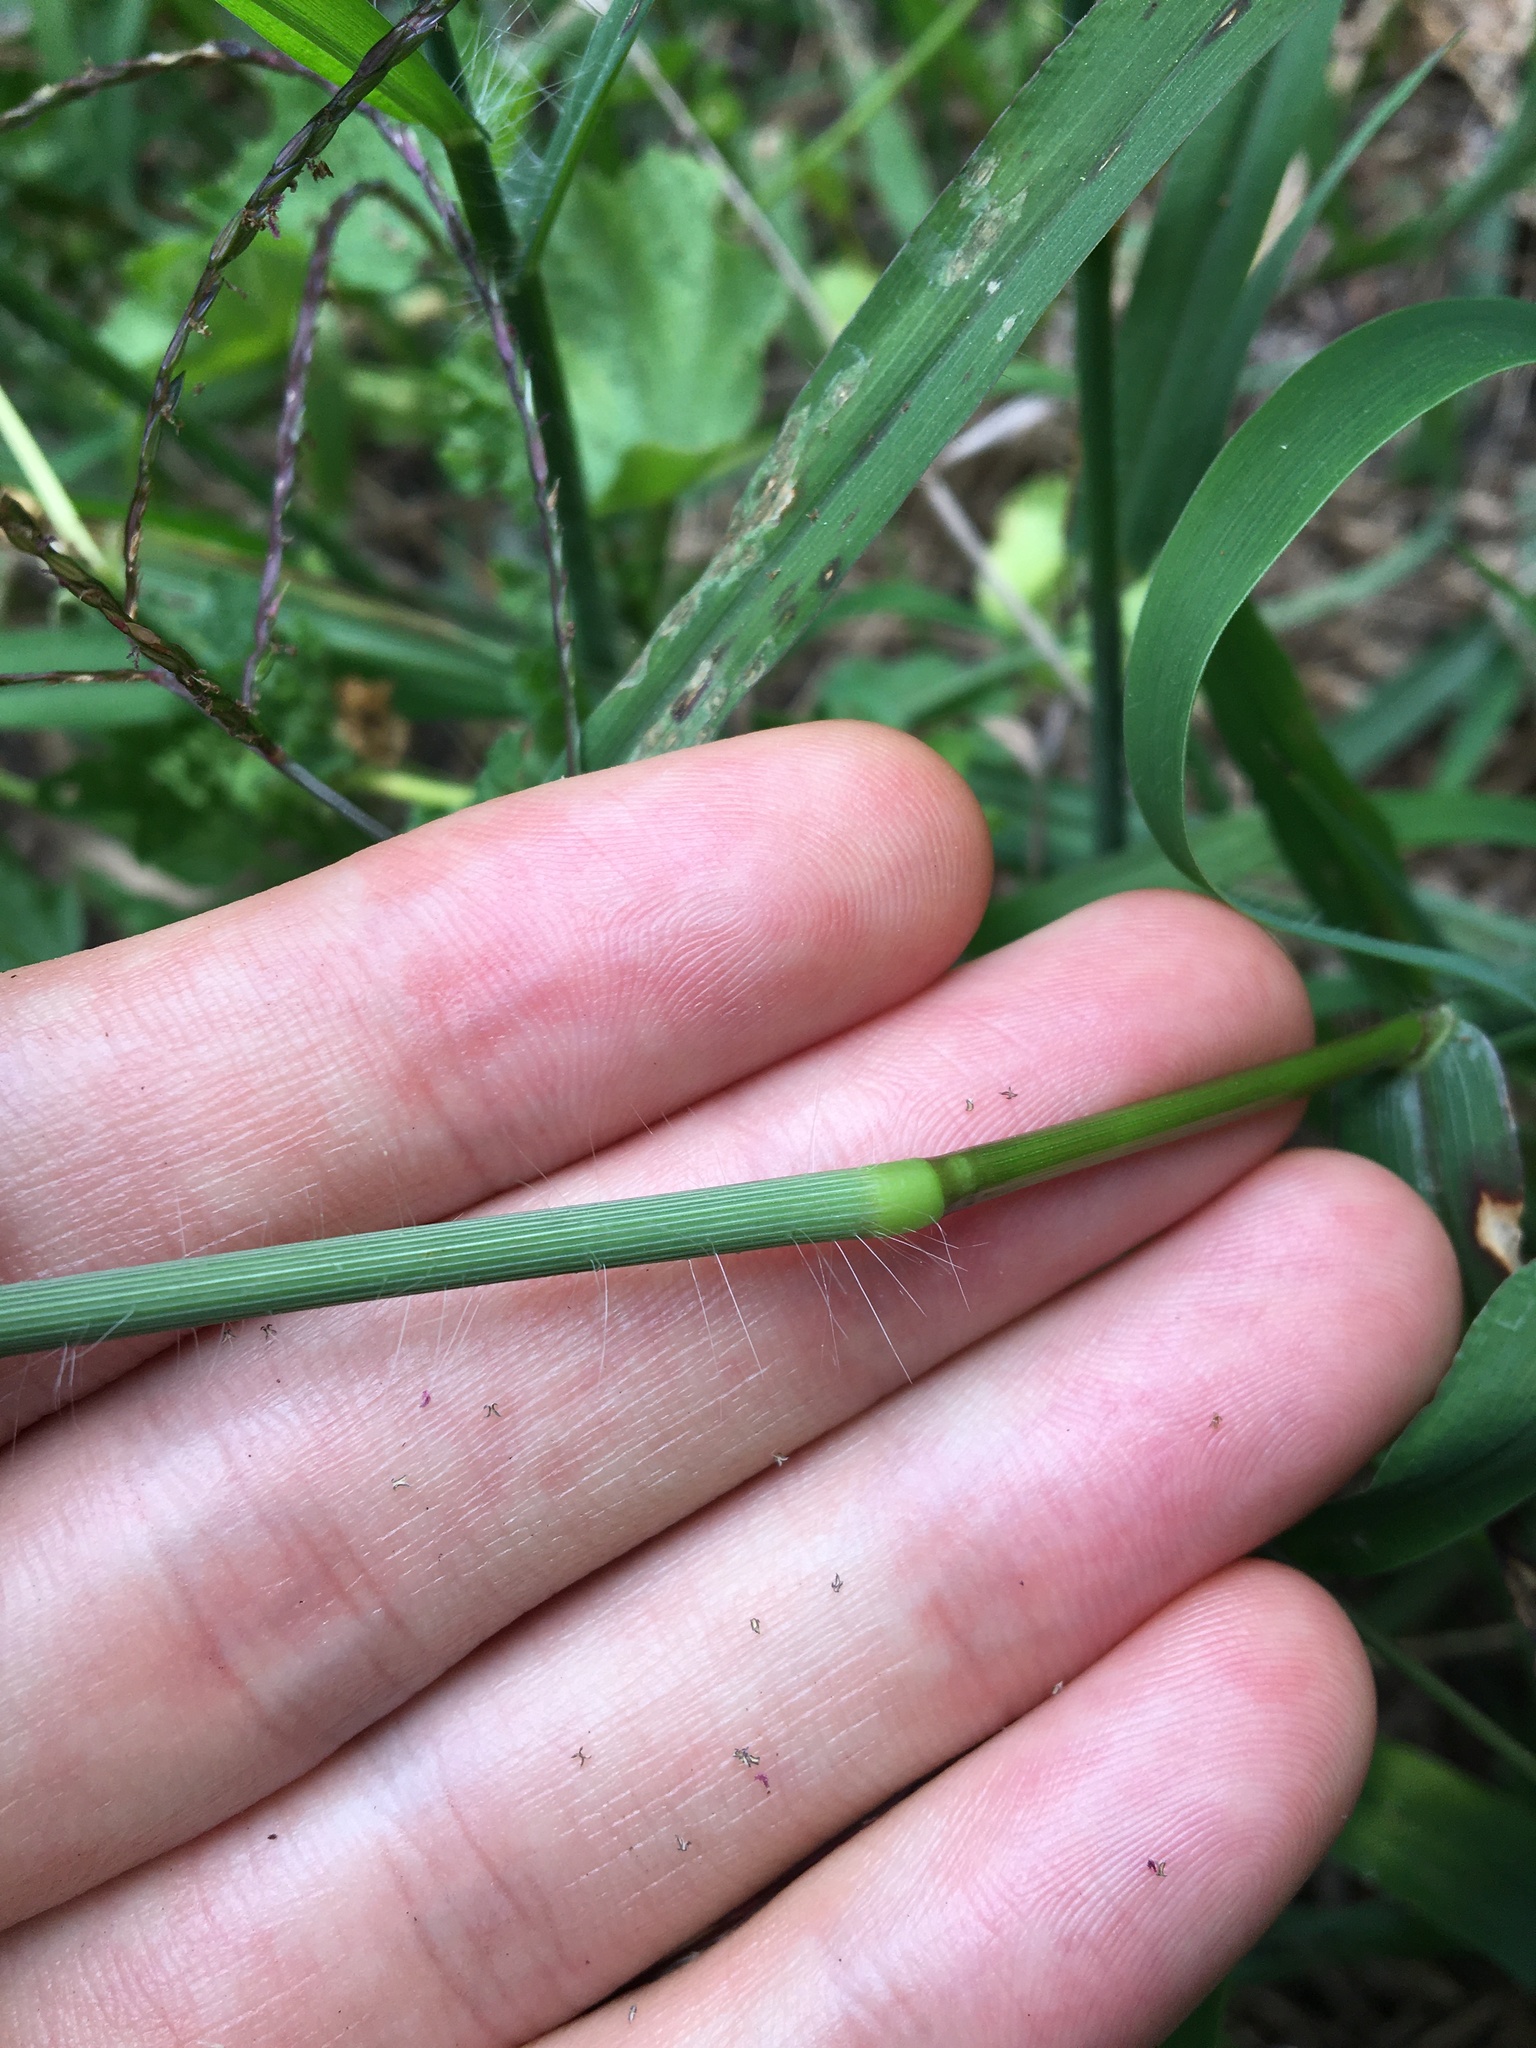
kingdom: Plantae
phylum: Tracheophyta
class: Liliopsida
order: Poales
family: Poaceae
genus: Digitaria
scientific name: Digitaria sanguinalis
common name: Hairy crabgrass
